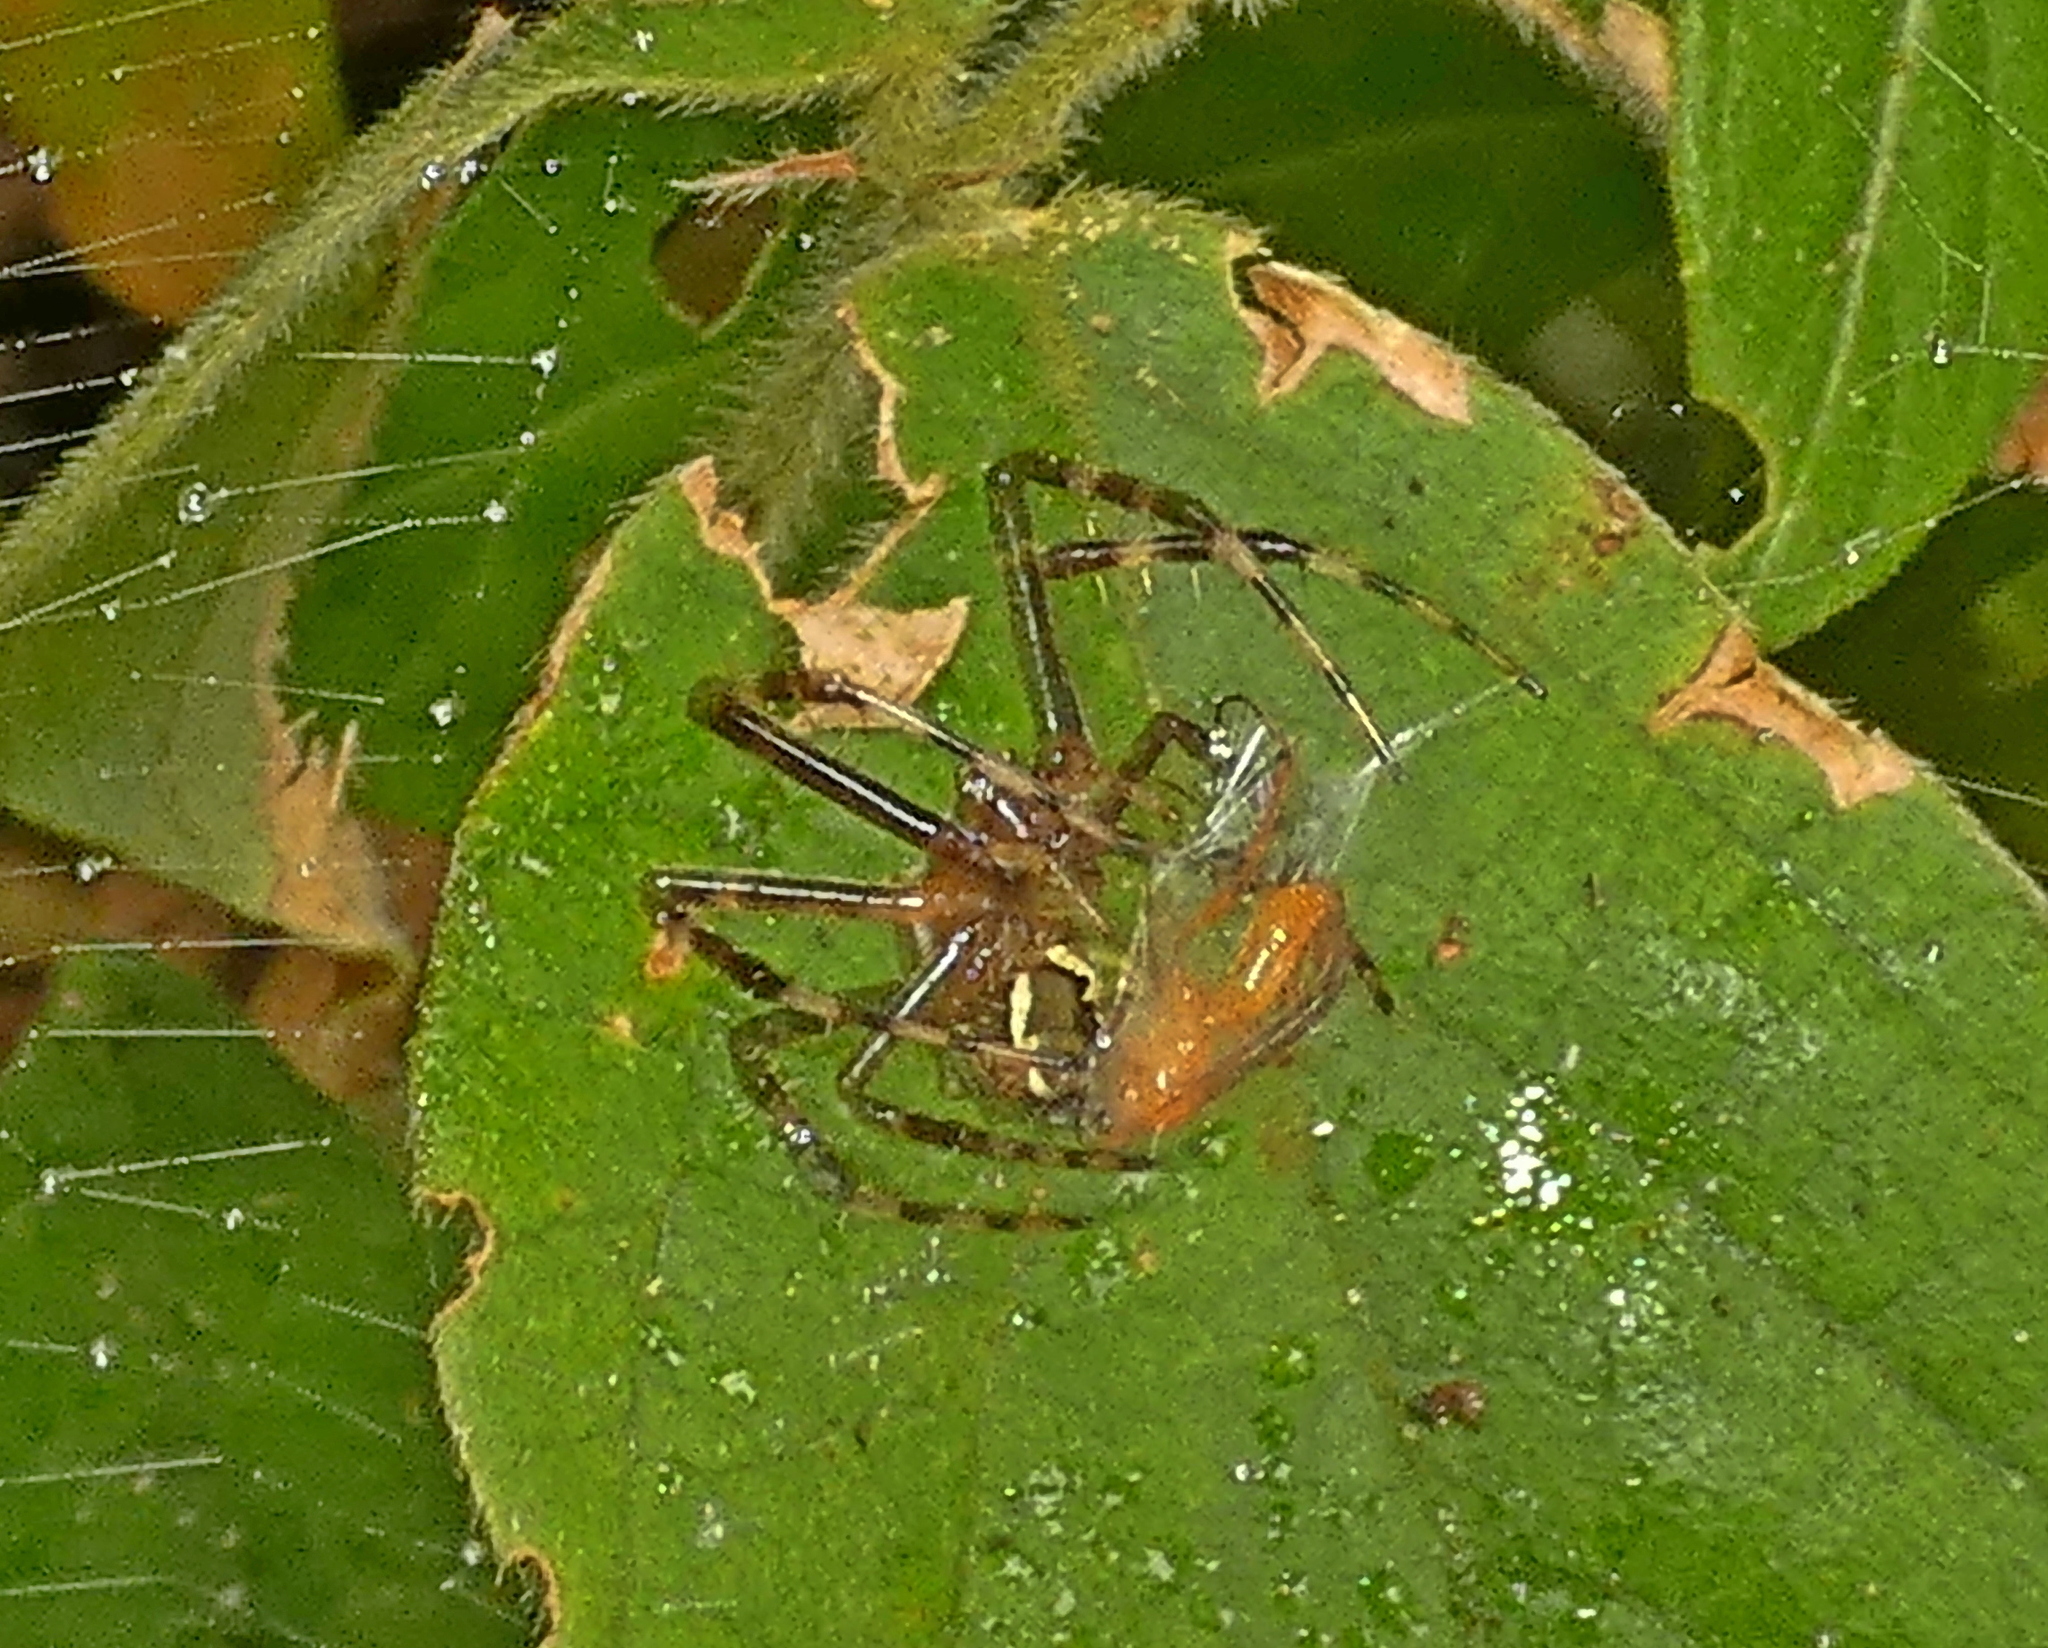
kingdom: Animalia
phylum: Arthropoda
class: Arachnida
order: Araneae
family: Araneidae
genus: Argiope
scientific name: Argiope argentata
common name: Orb weavers
